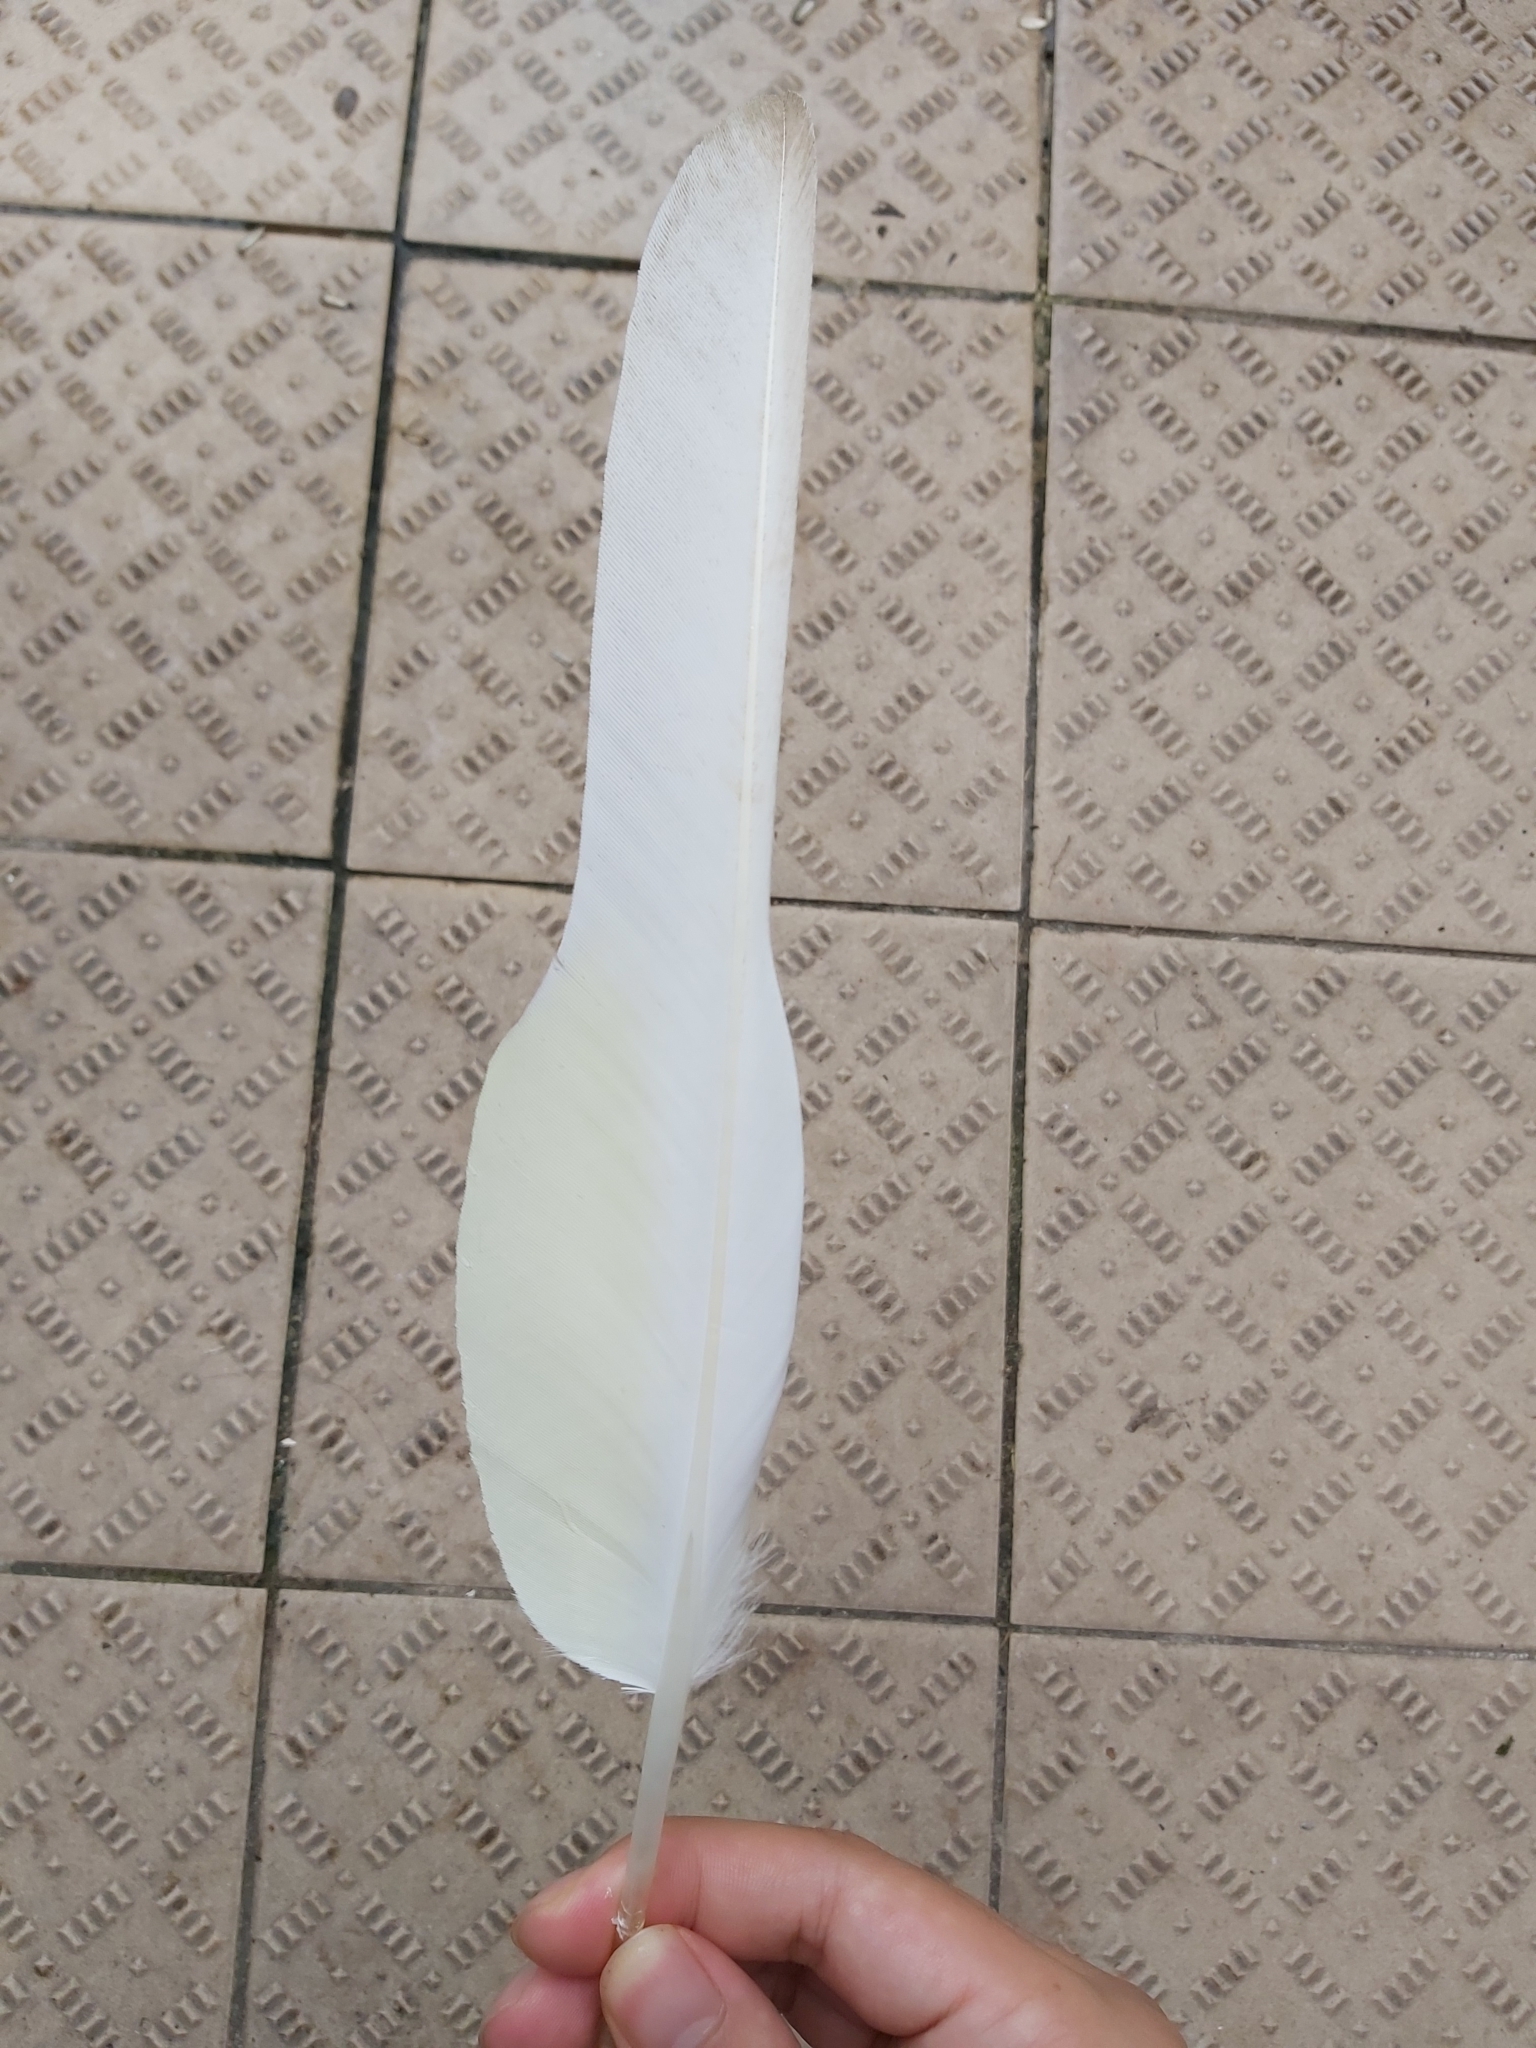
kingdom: Animalia
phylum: Chordata
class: Aves
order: Psittaciformes
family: Psittacidae
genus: Cacatua
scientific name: Cacatua galerita
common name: Sulphur-crested cockatoo
